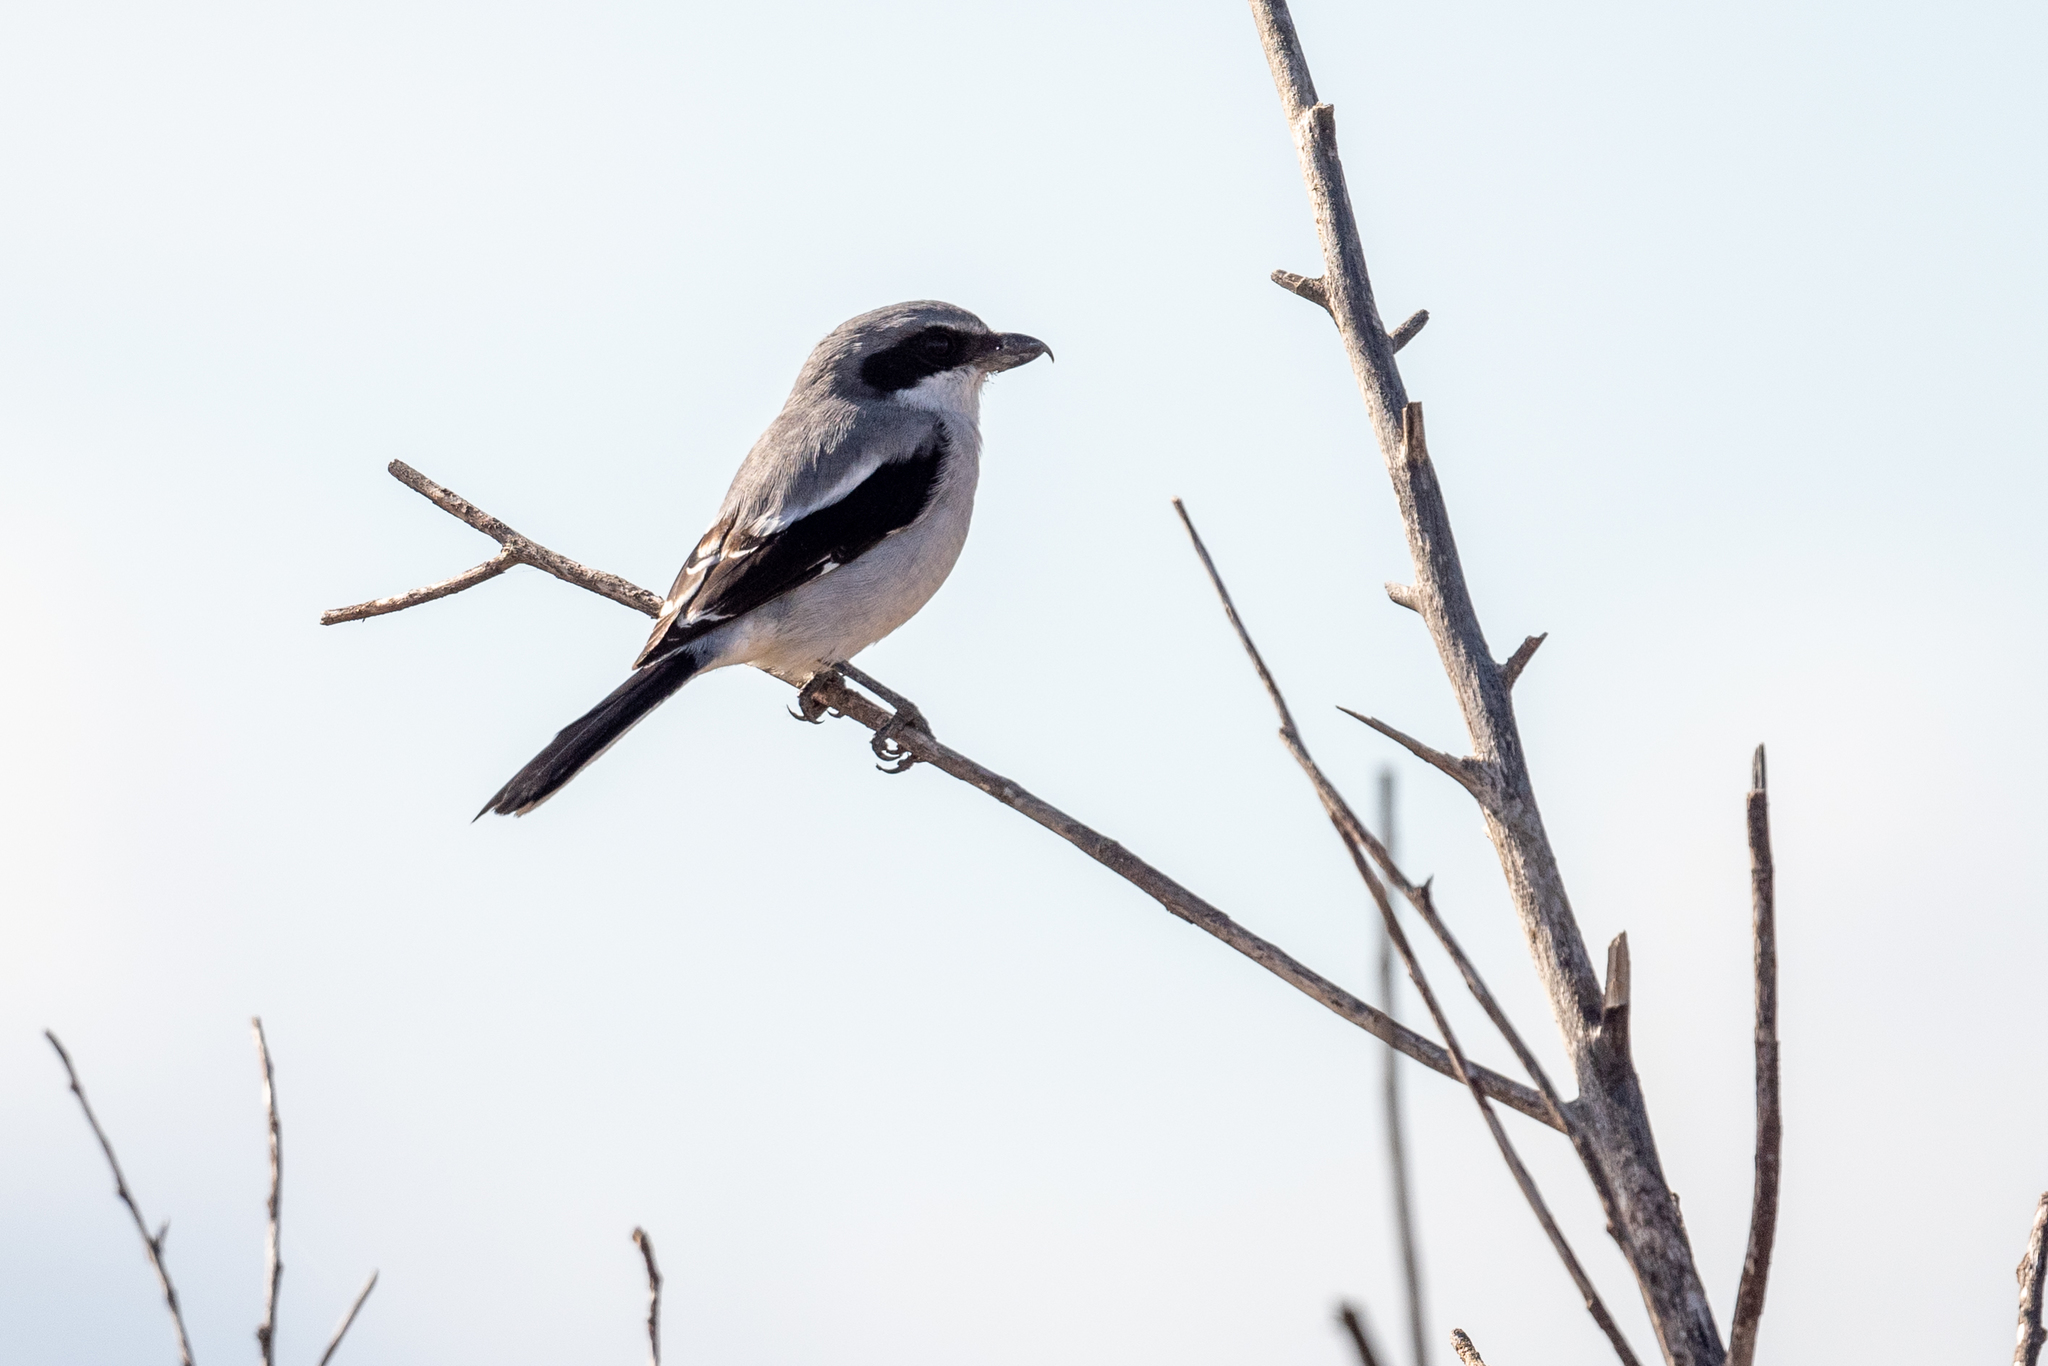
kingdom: Animalia
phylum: Chordata
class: Aves
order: Passeriformes
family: Laniidae
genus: Lanius
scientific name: Lanius ludovicianus
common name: Loggerhead shrike
